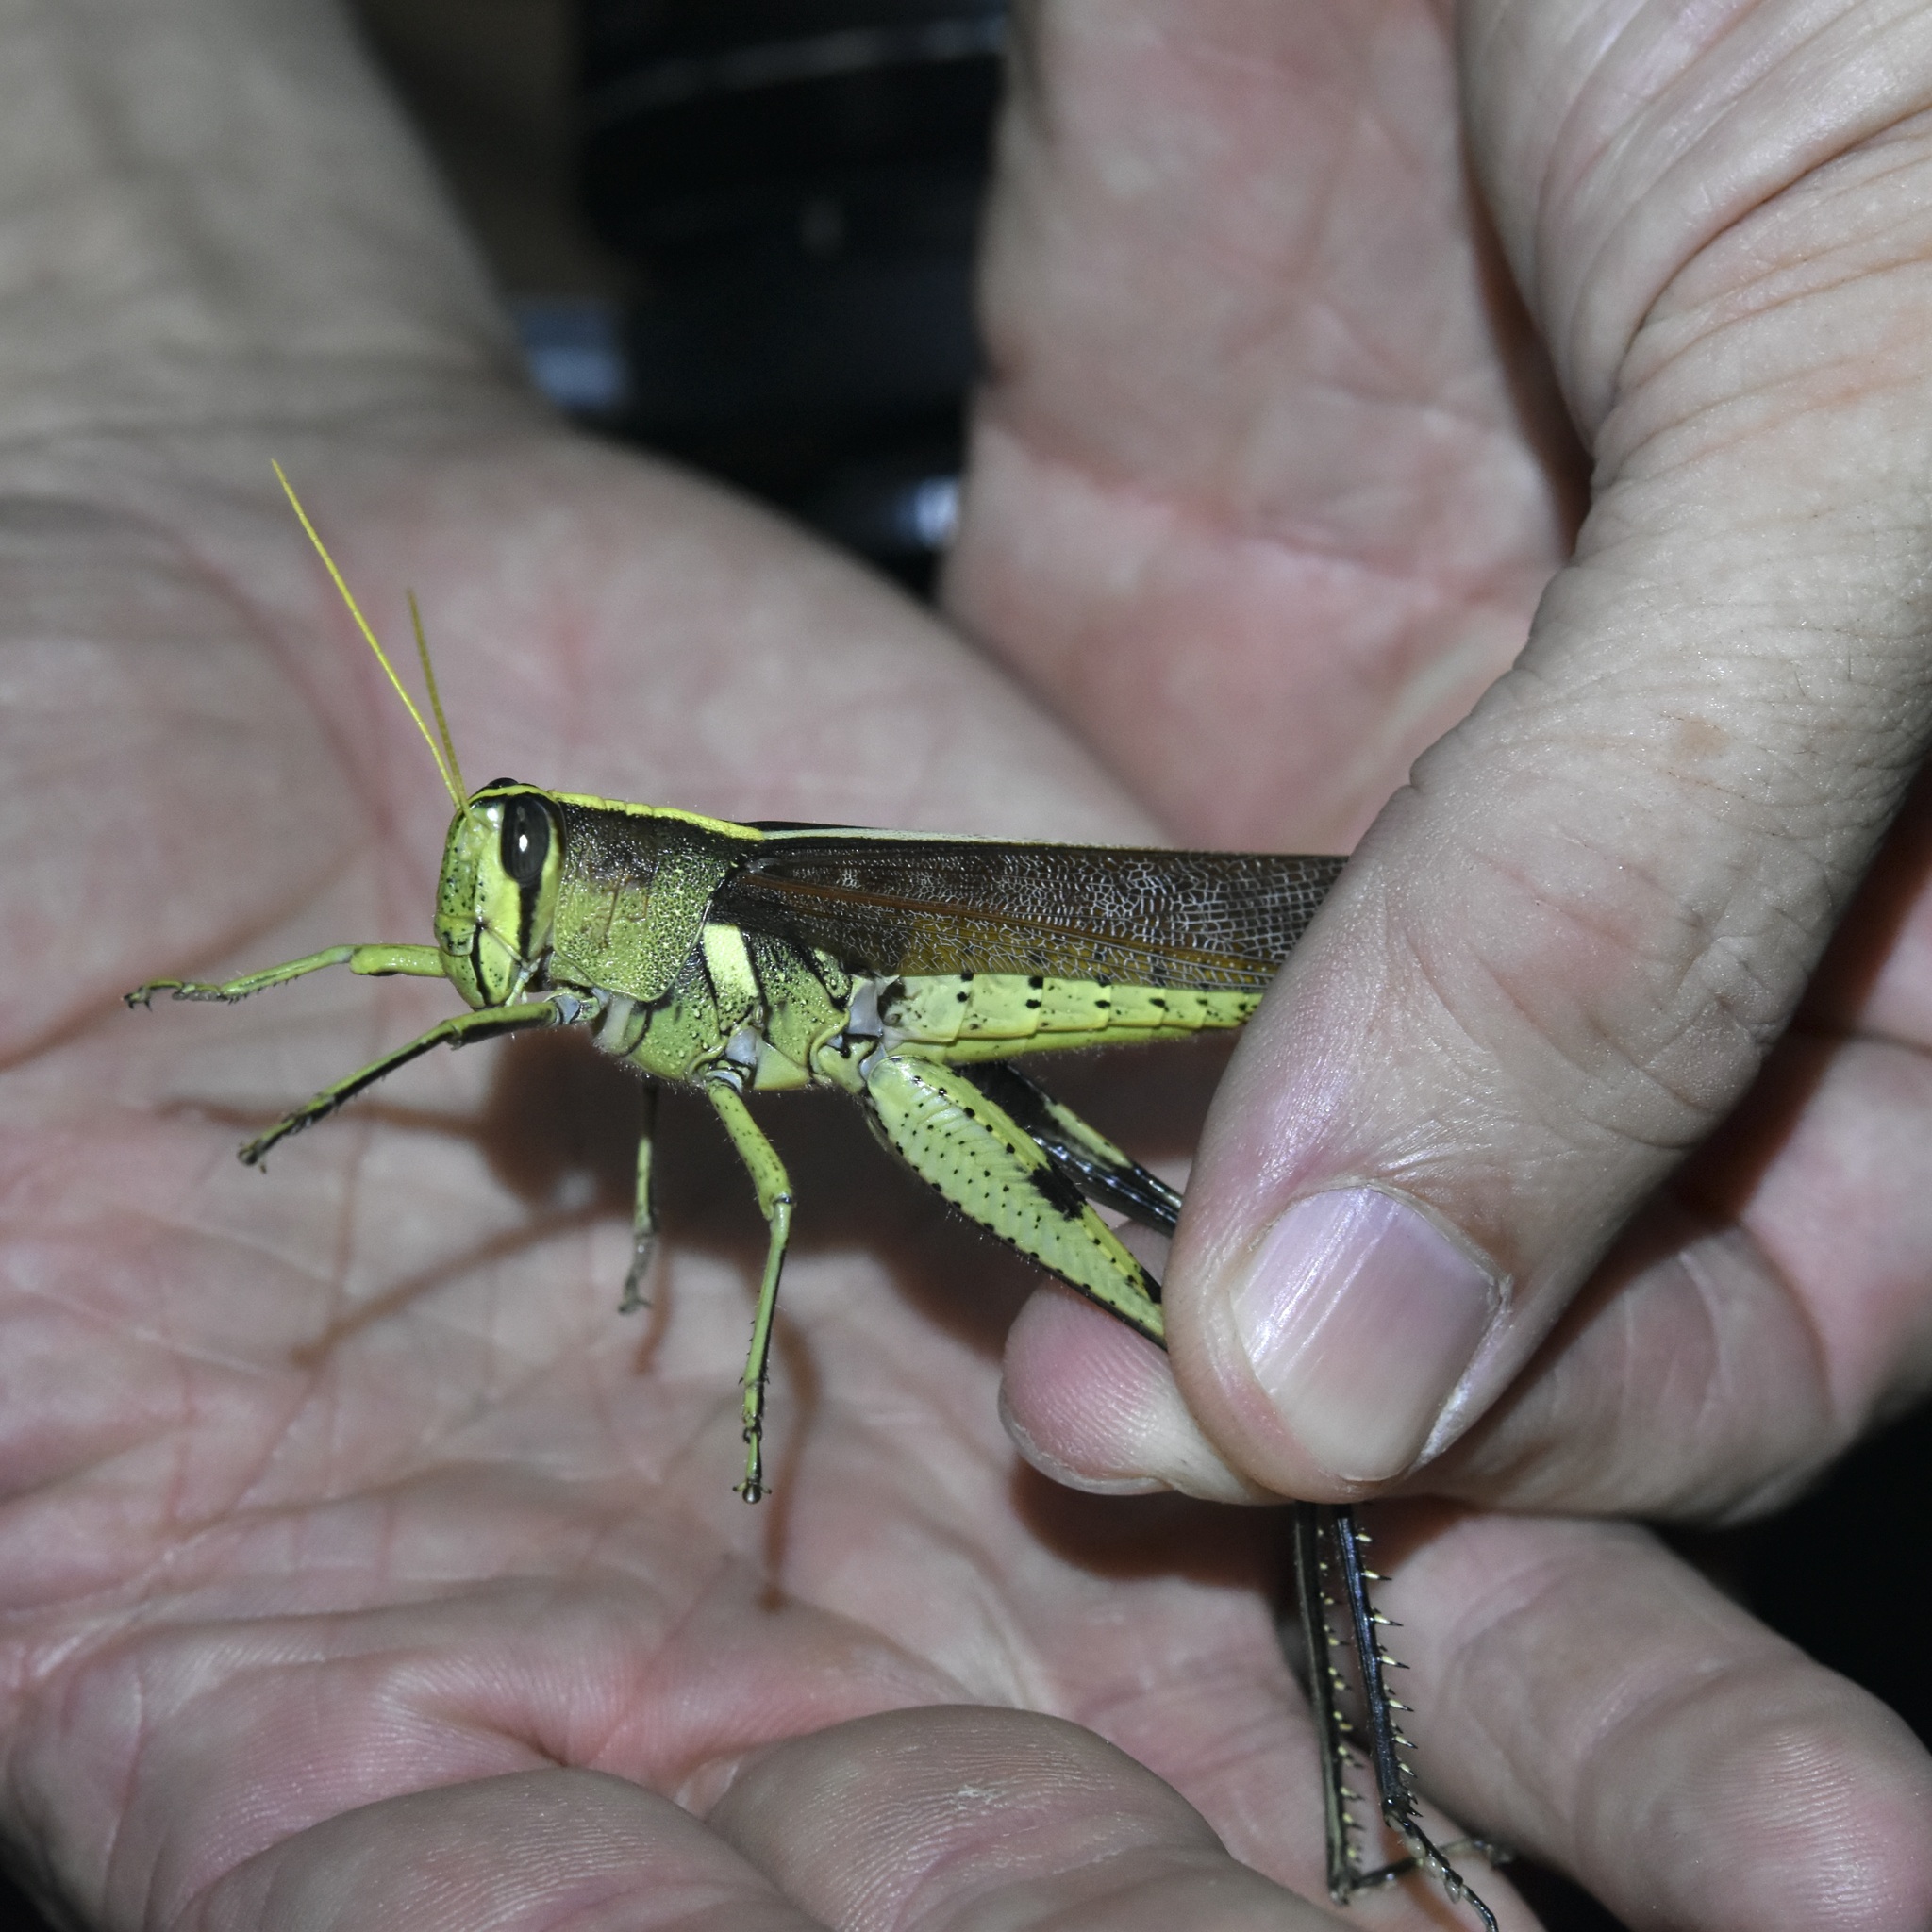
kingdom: Animalia
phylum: Arthropoda
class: Insecta
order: Orthoptera
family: Acrididae
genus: Schistocerca
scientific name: Schistocerca obscura
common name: Obscure bird grasshopper
